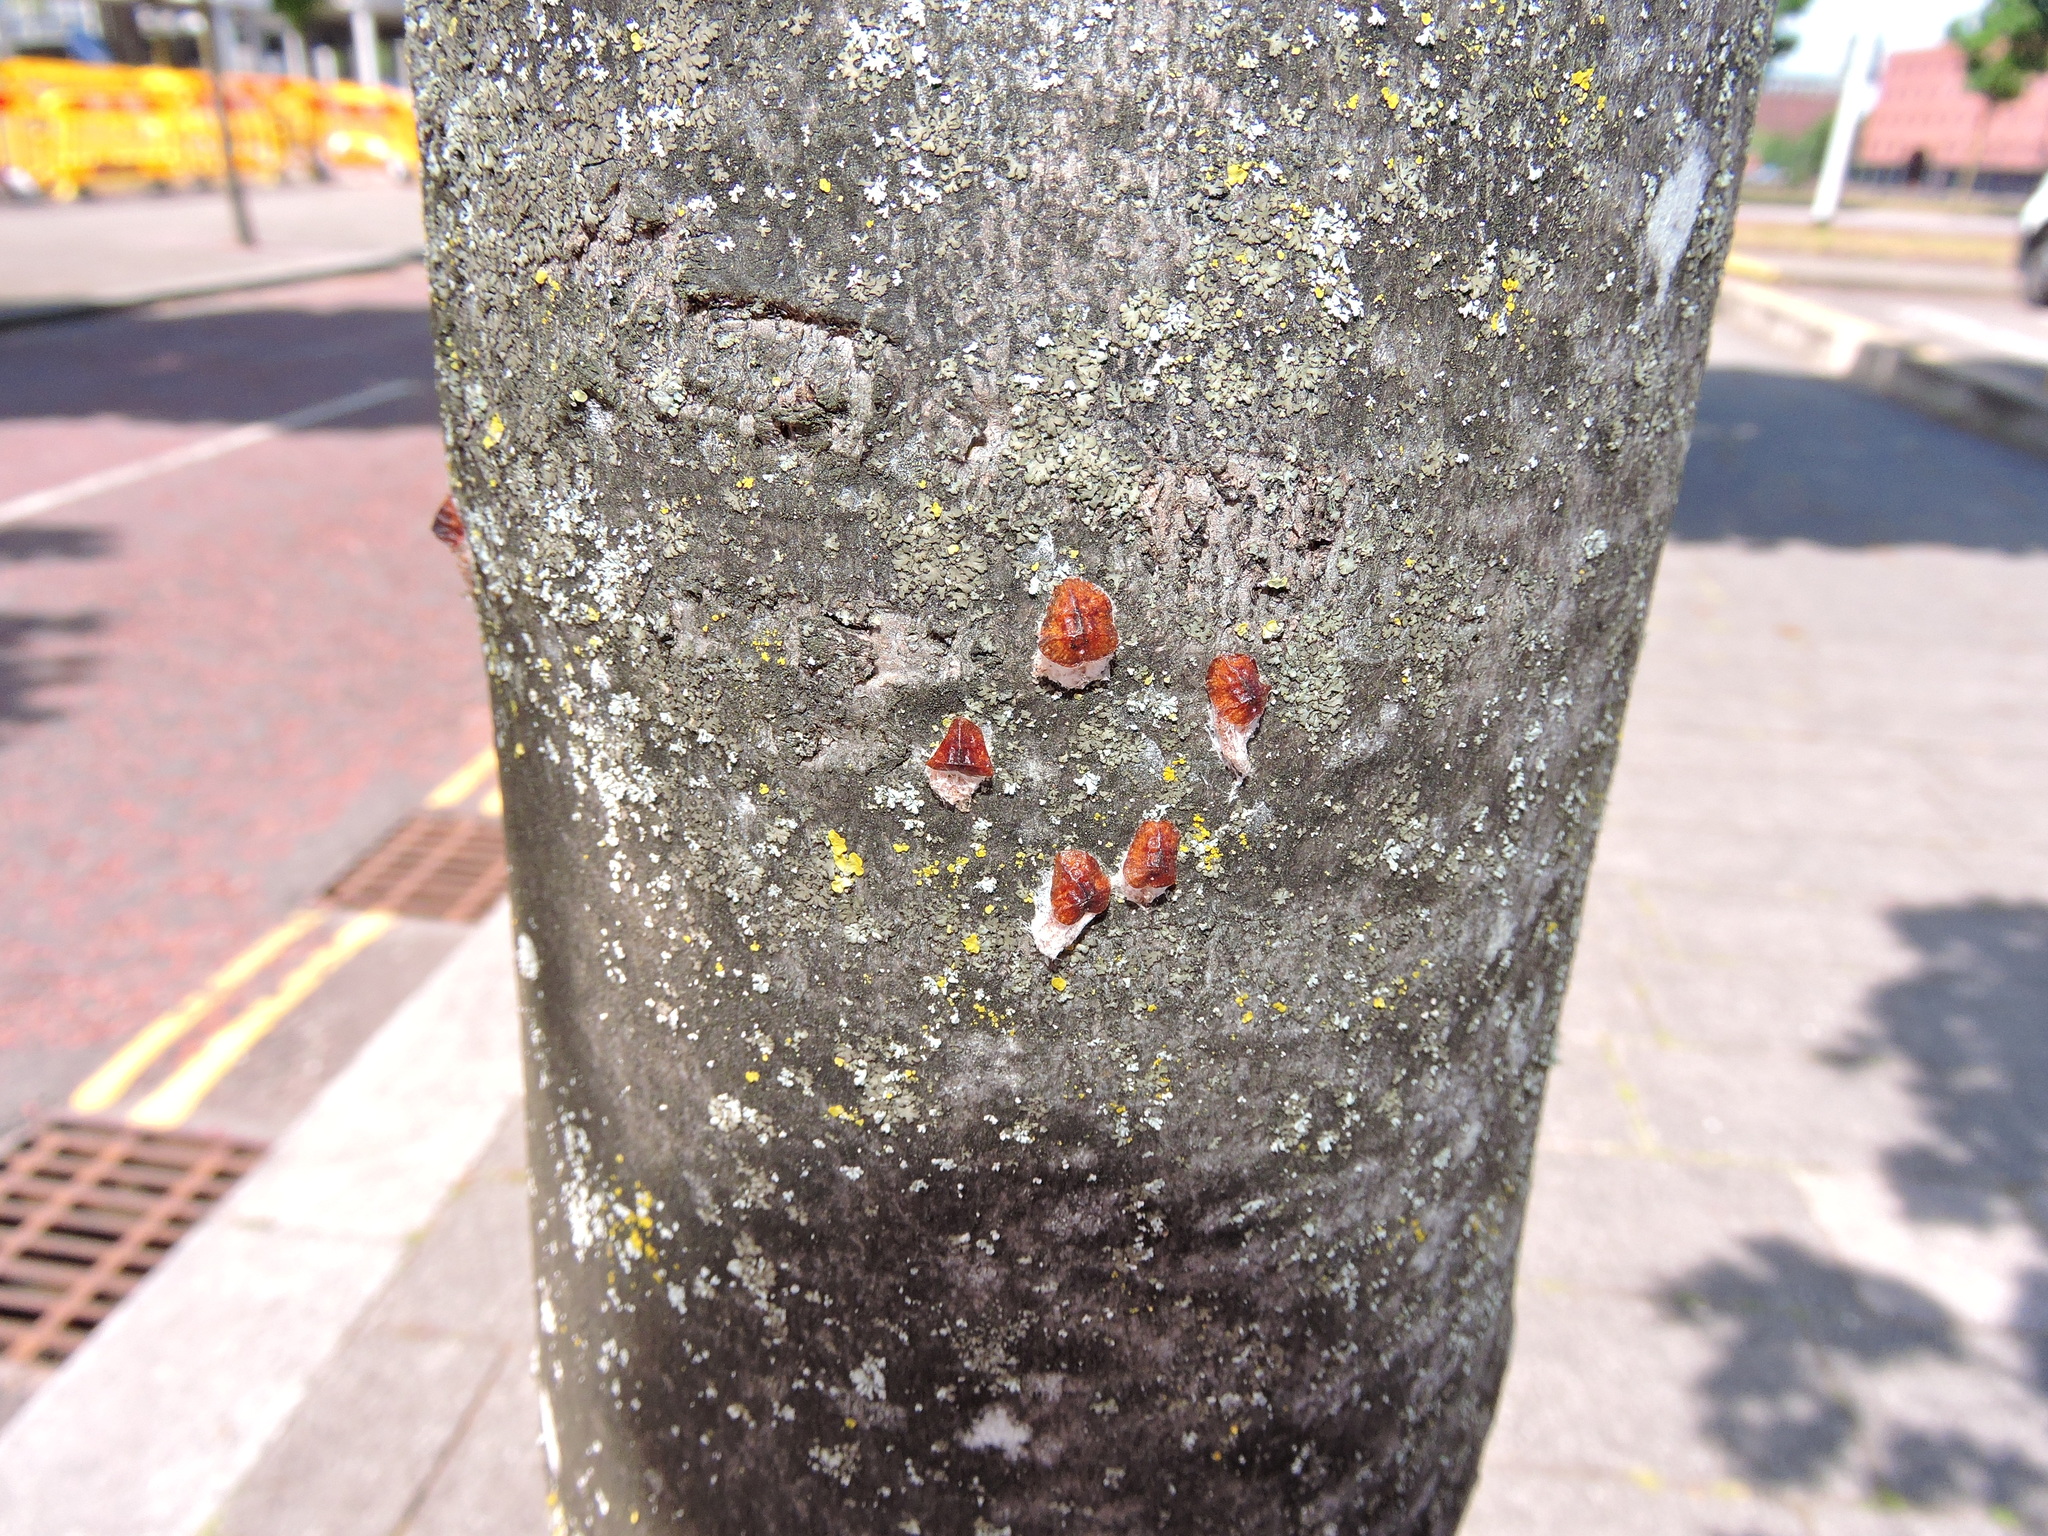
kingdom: Animalia
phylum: Arthropoda
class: Insecta
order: Hemiptera
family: Coccidae
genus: Pulvinaria
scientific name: Pulvinaria regalis
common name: Horse chestnut scale
